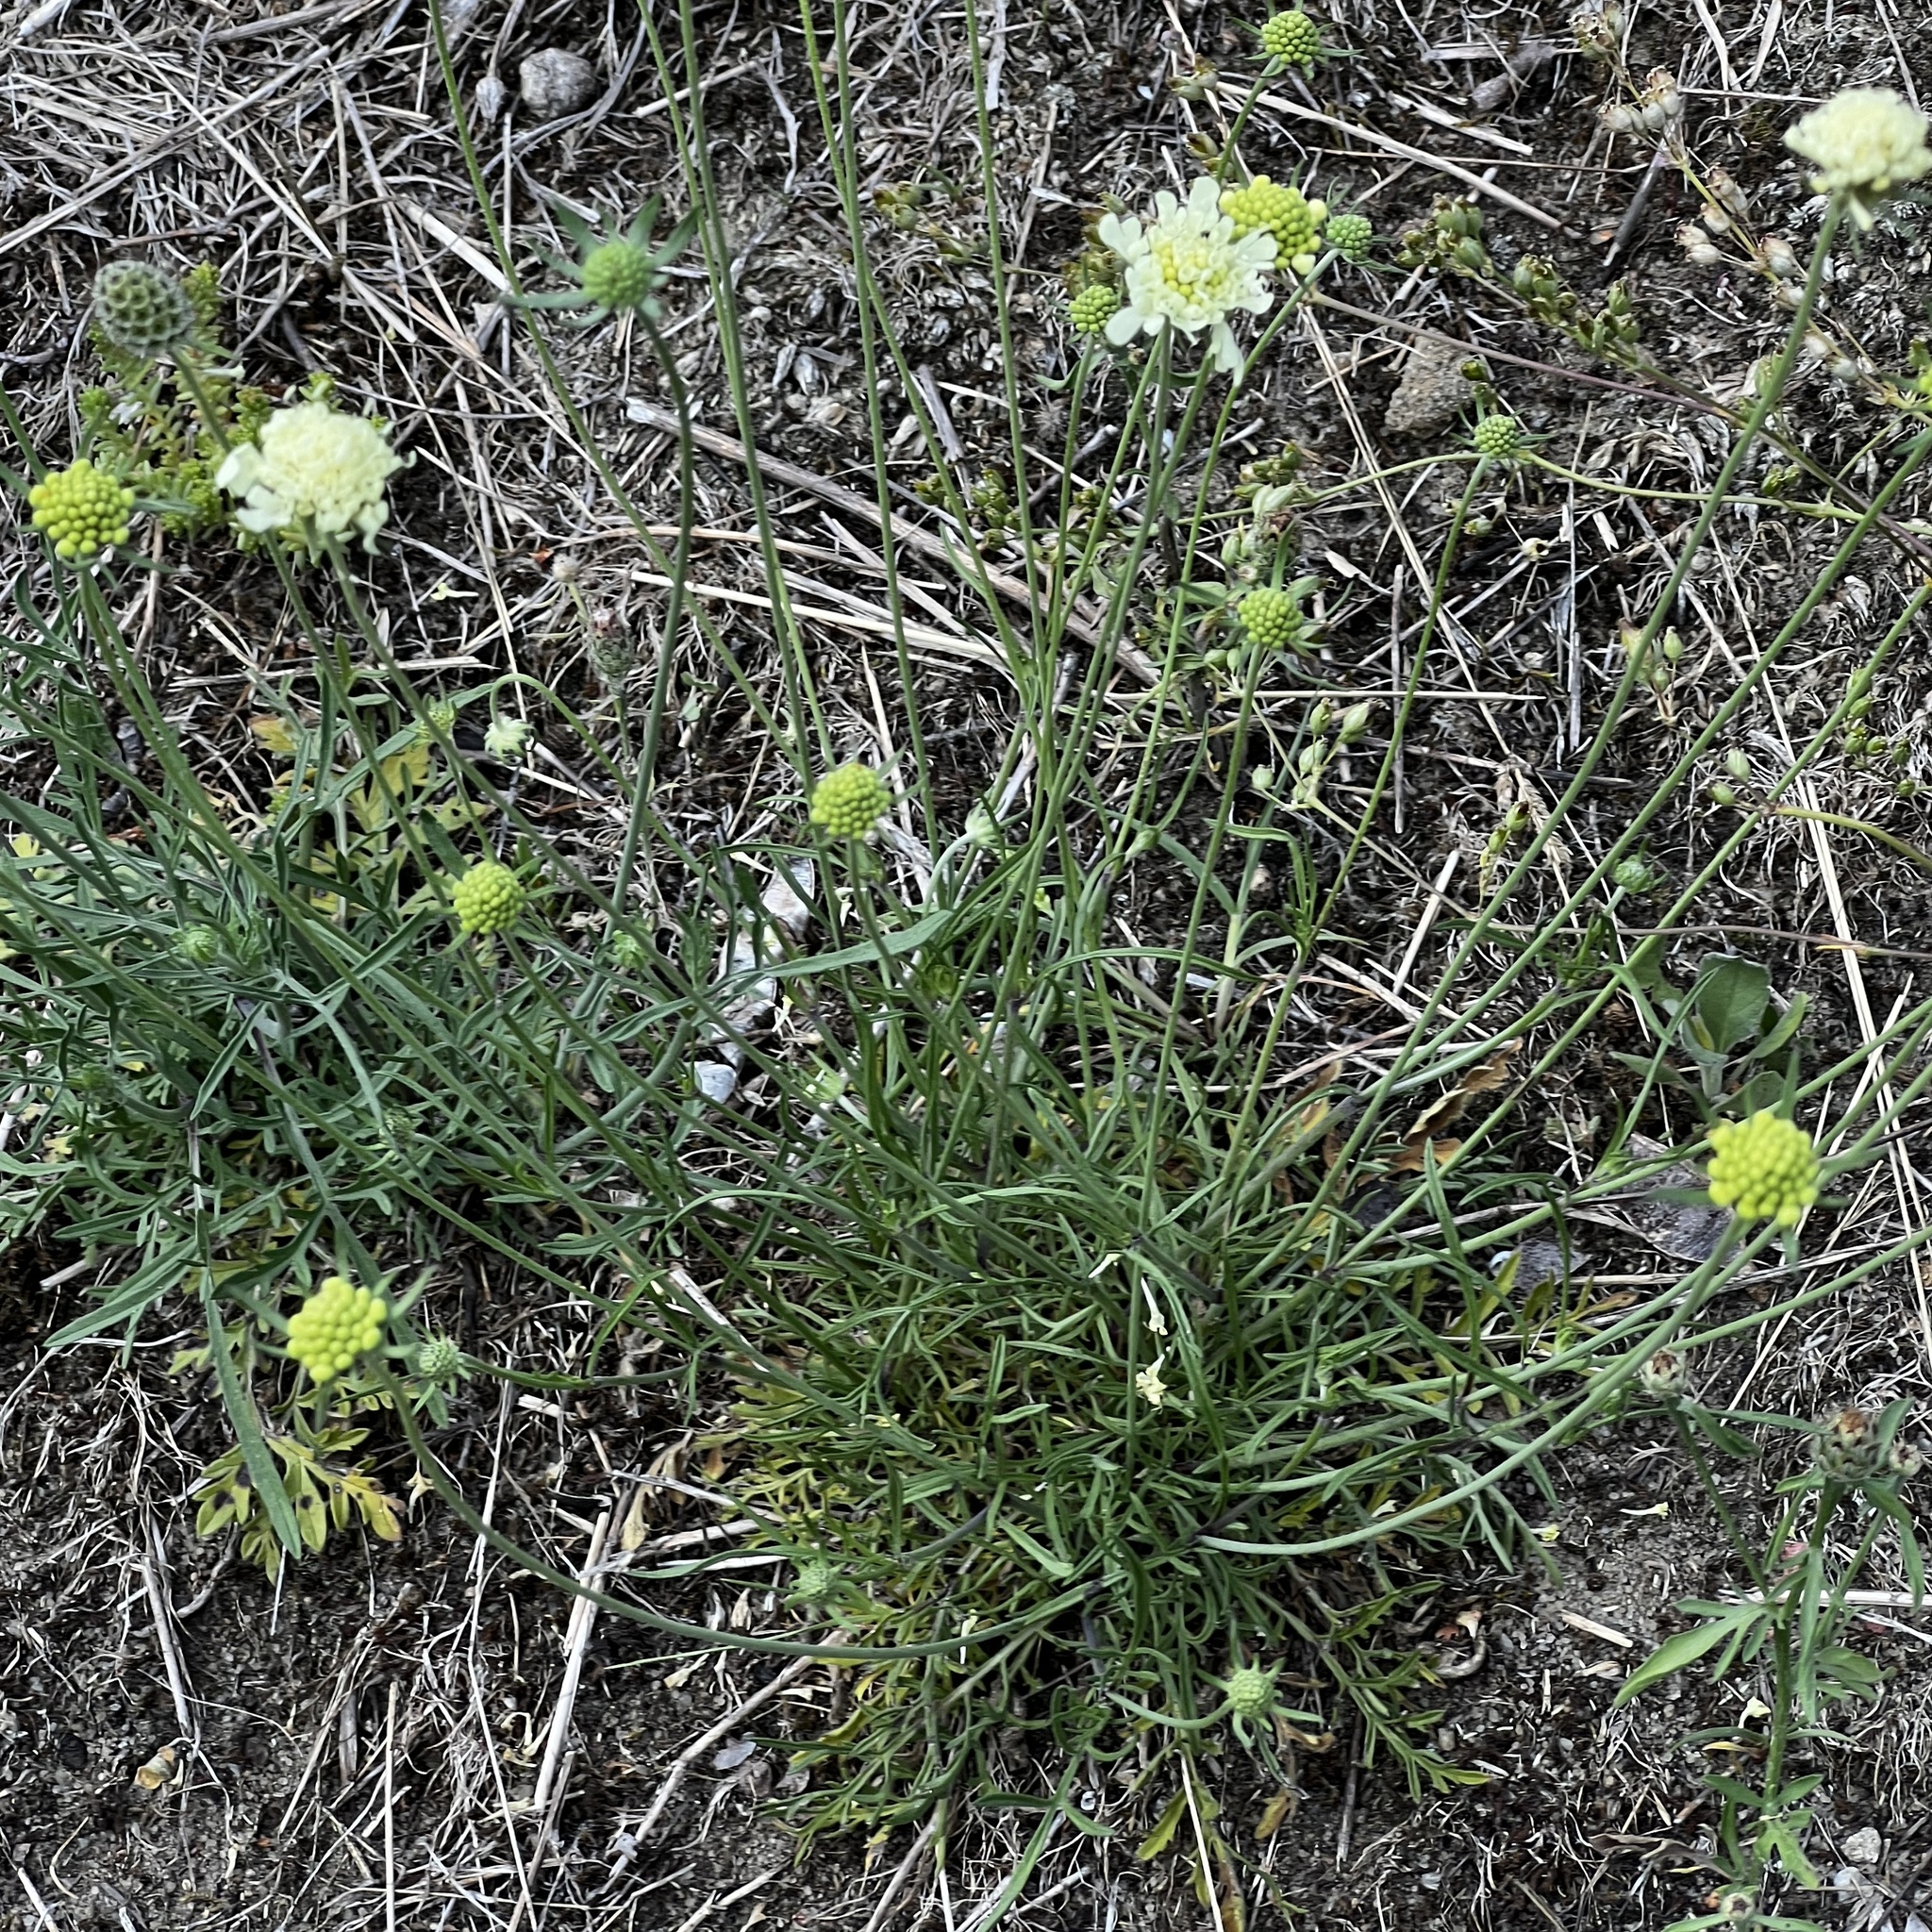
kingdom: Plantae
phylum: Tracheophyta
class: Magnoliopsida
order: Dipsacales
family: Caprifoliaceae
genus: Scabiosa
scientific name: Scabiosa ochroleuca
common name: Cream pincushions
